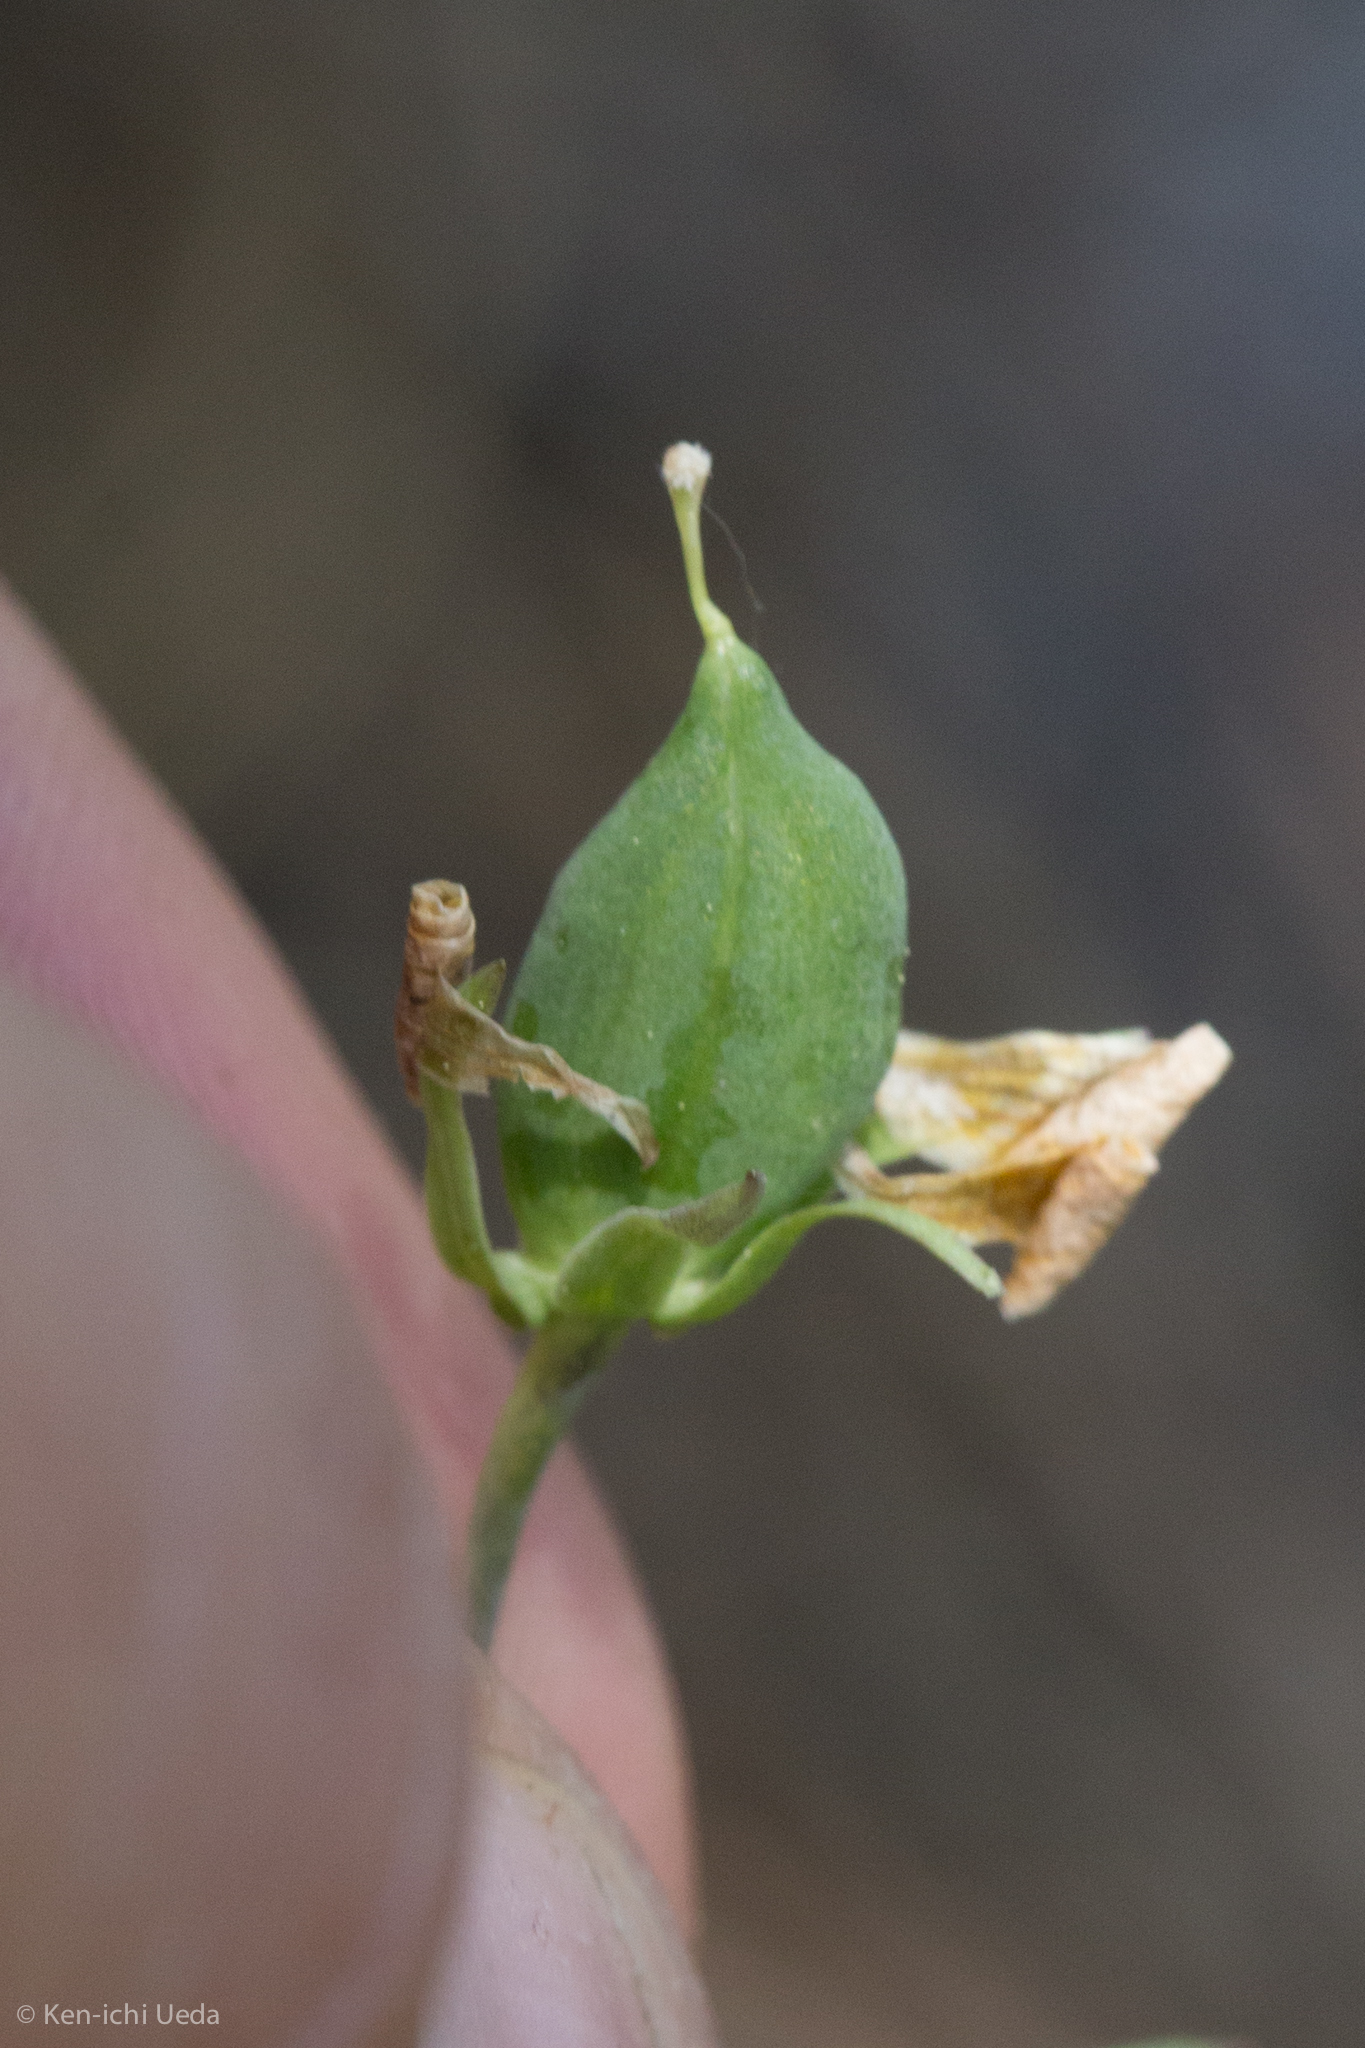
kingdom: Plantae
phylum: Tracheophyta
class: Magnoliopsida
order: Malpighiales
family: Violaceae
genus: Viola
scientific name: Viola lobata
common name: Pine violet
